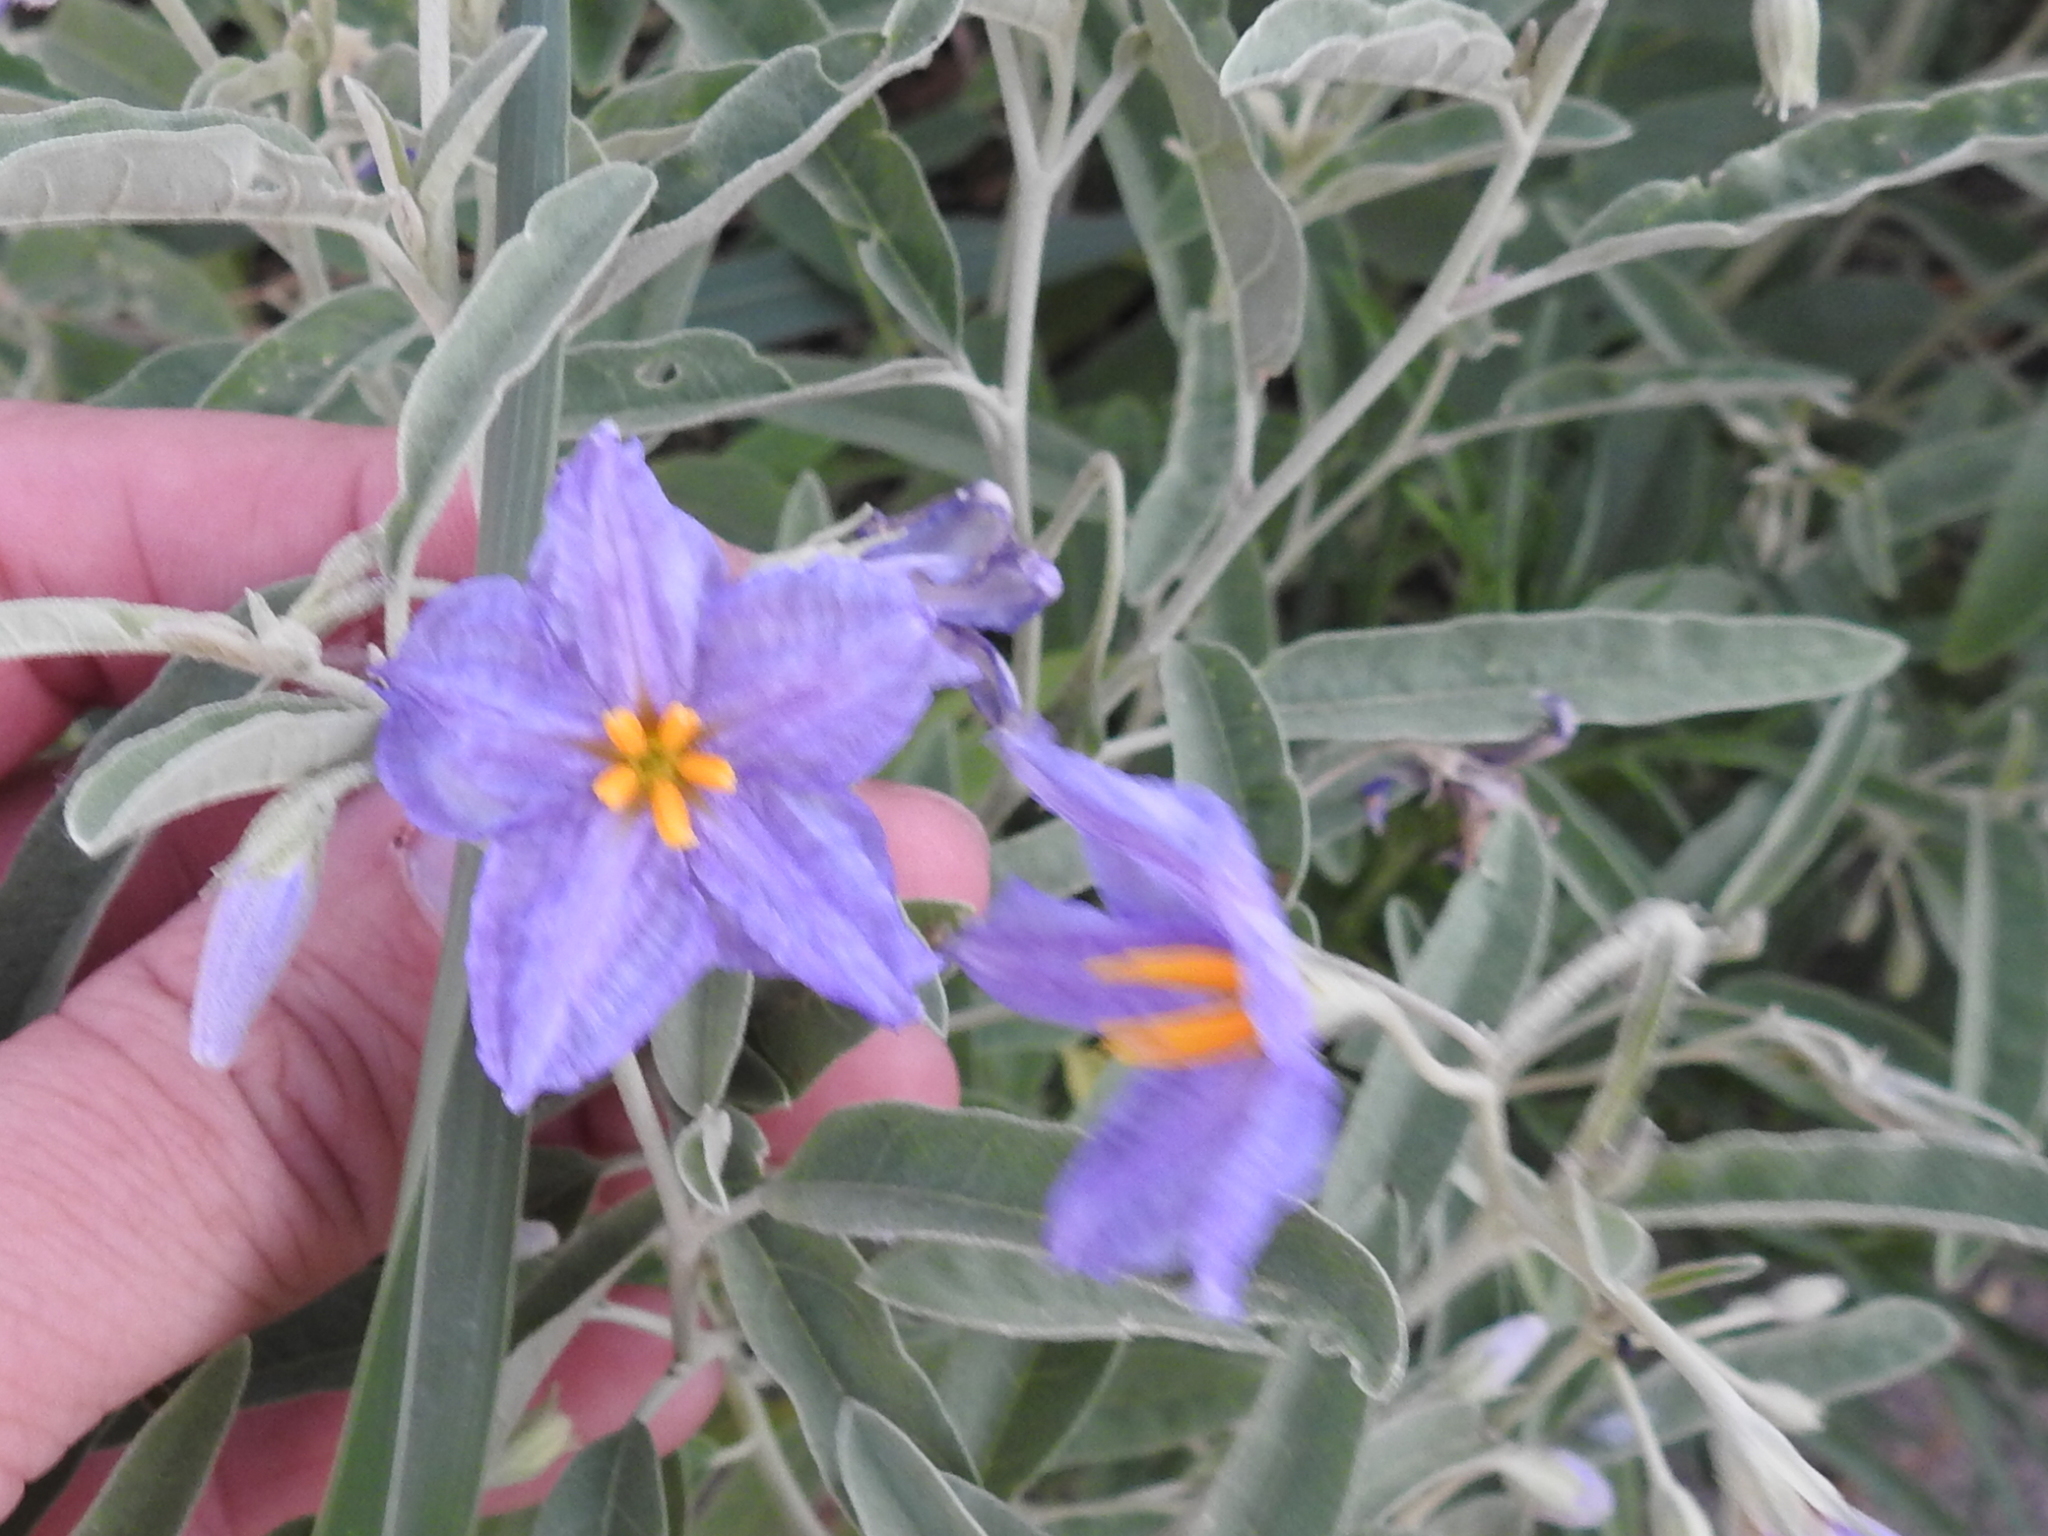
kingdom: Plantae
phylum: Tracheophyta
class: Magnoliopsida
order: Solanales
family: Solanaceae
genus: Solanum
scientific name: Solanum elaeagnifolium
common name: Silverleaf nightshade
